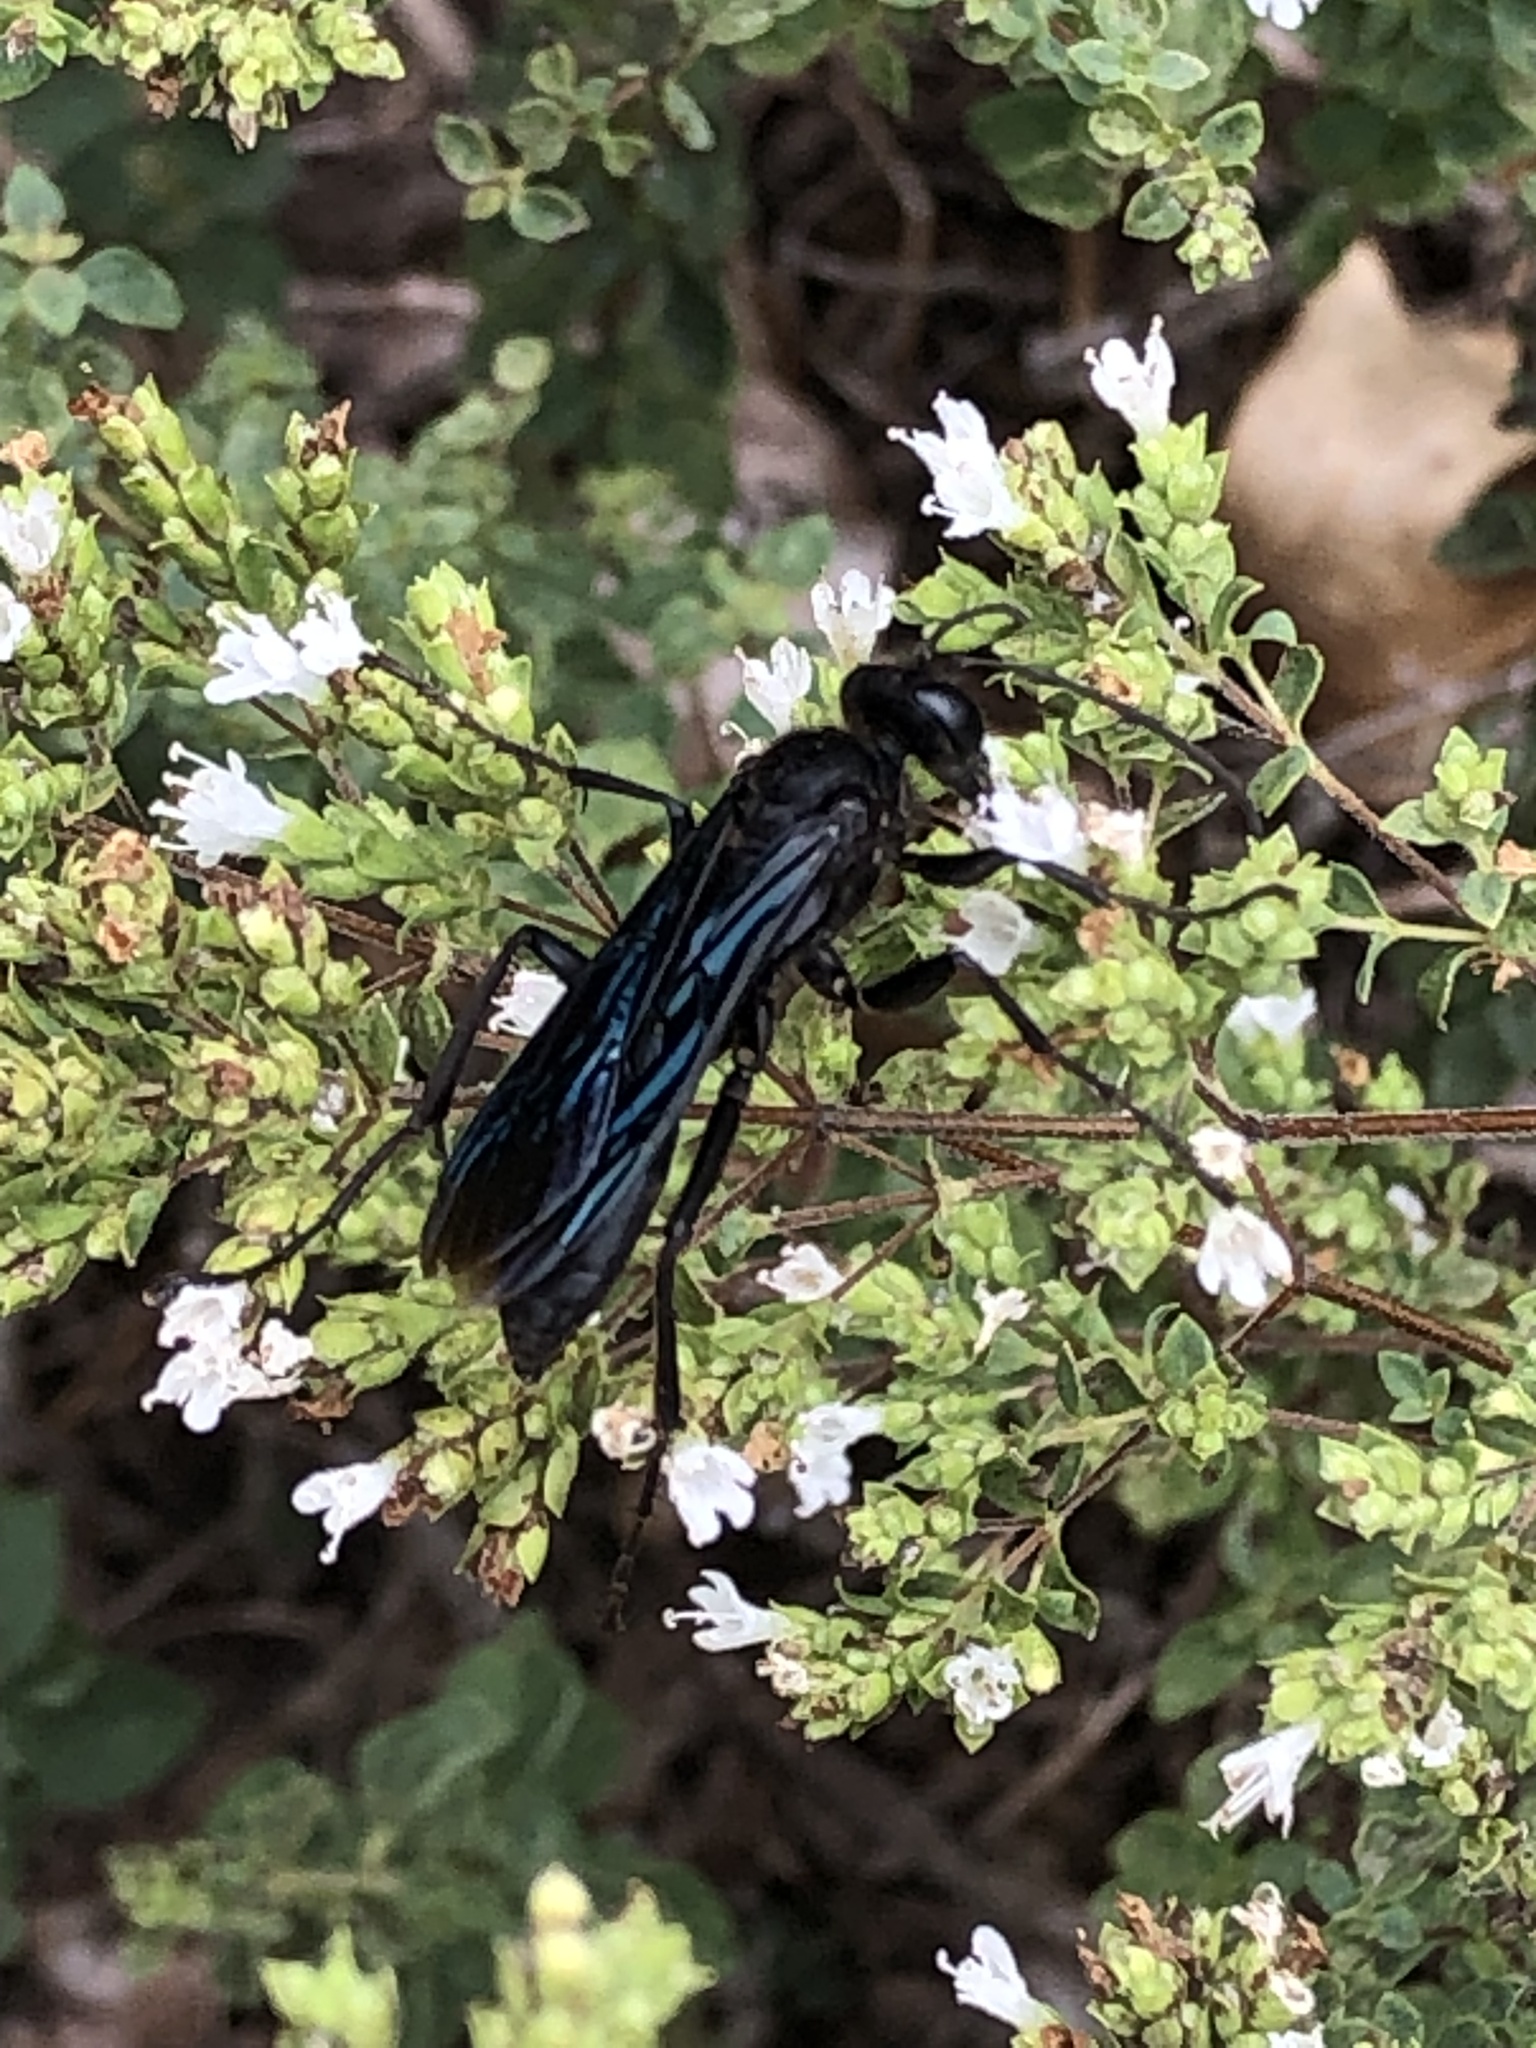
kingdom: Animalia
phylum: Arthropoda
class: Insecta
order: Hymenoptera
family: Sphecidae
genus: Sphex
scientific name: Sphex pensylvanicus
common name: Great black digger wasp
